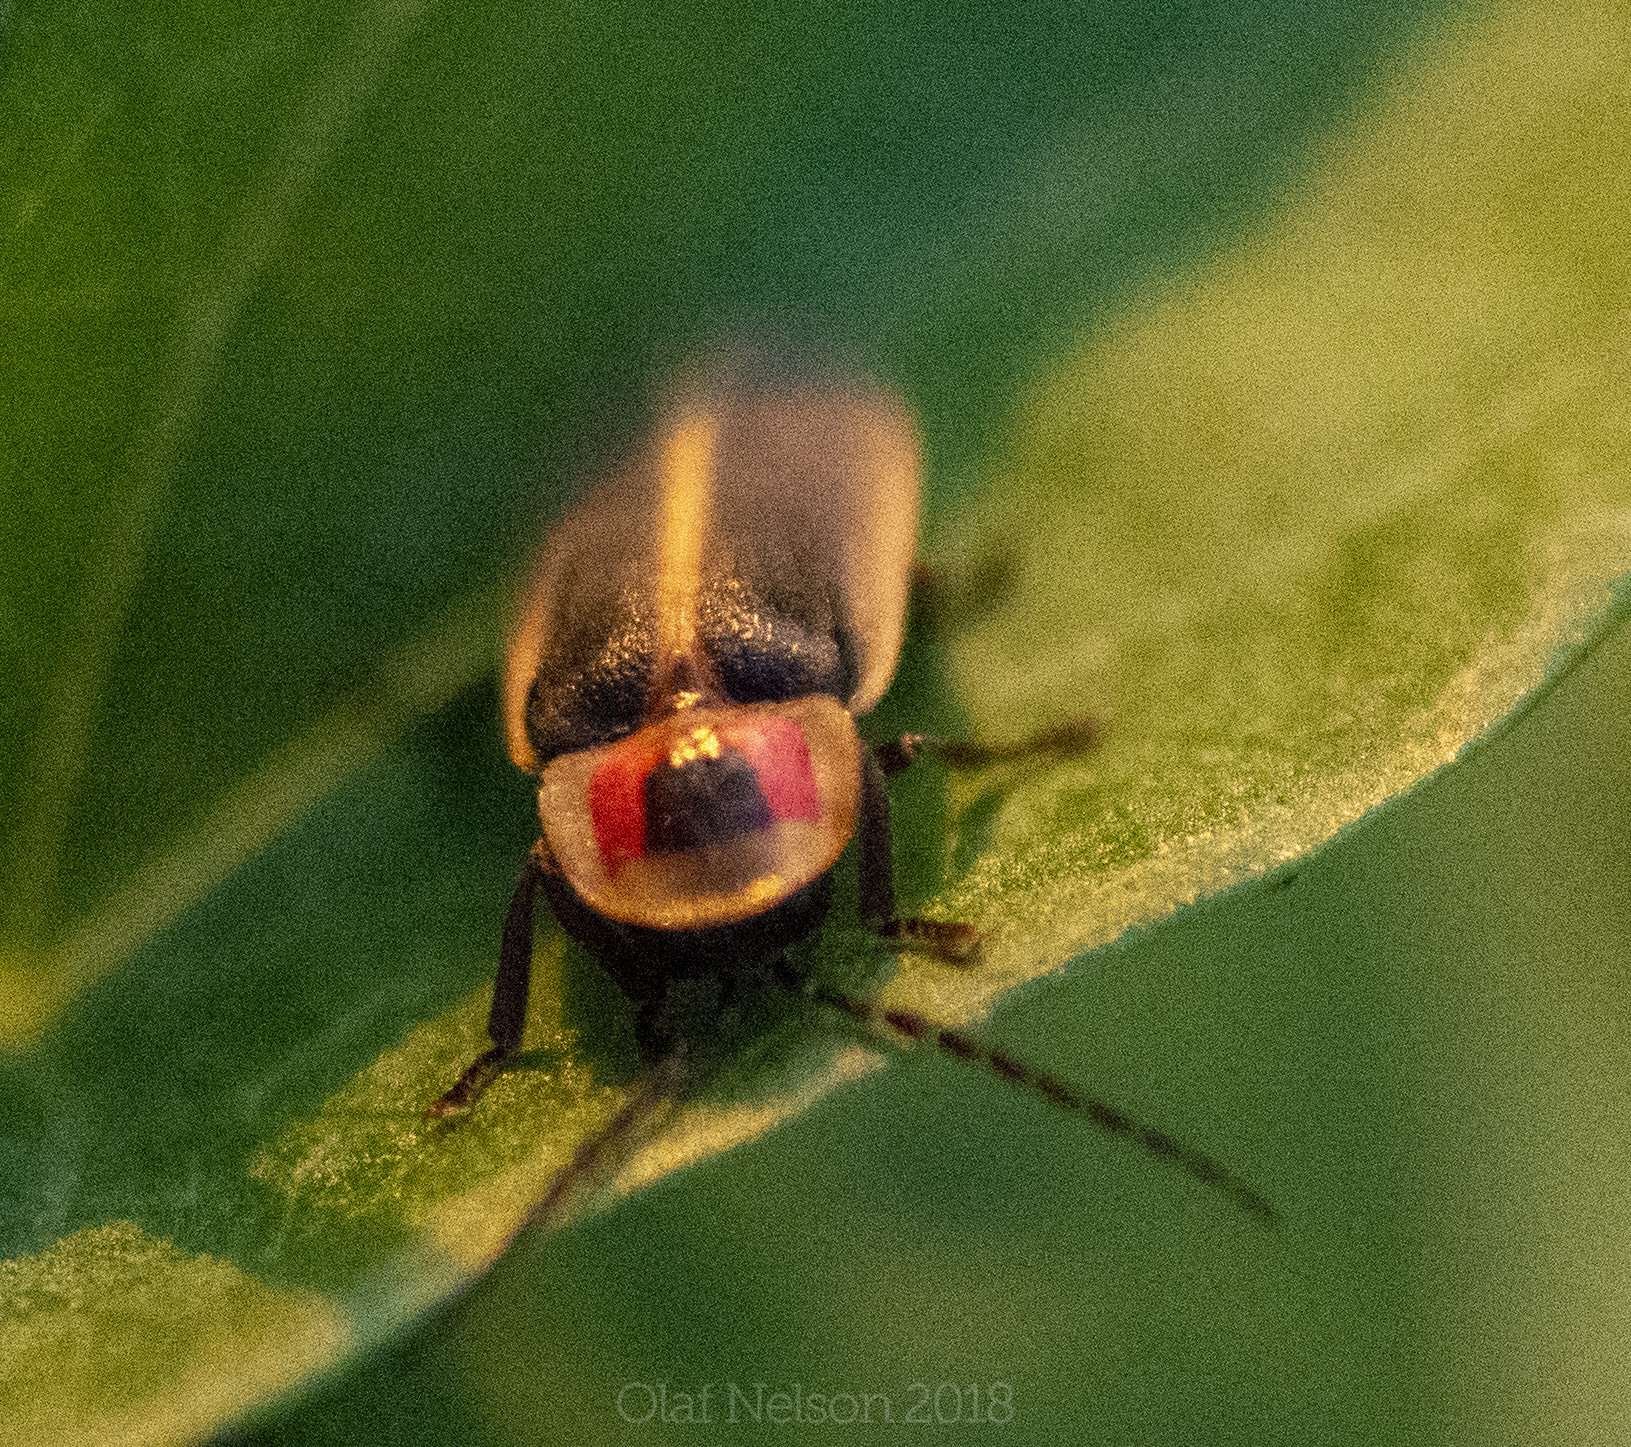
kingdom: Animalia
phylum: Arthropoda
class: Insecta
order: Coleoptera
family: Lampyridae
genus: Photinus
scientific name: Photinus pyralis
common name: Big dipper firefly
